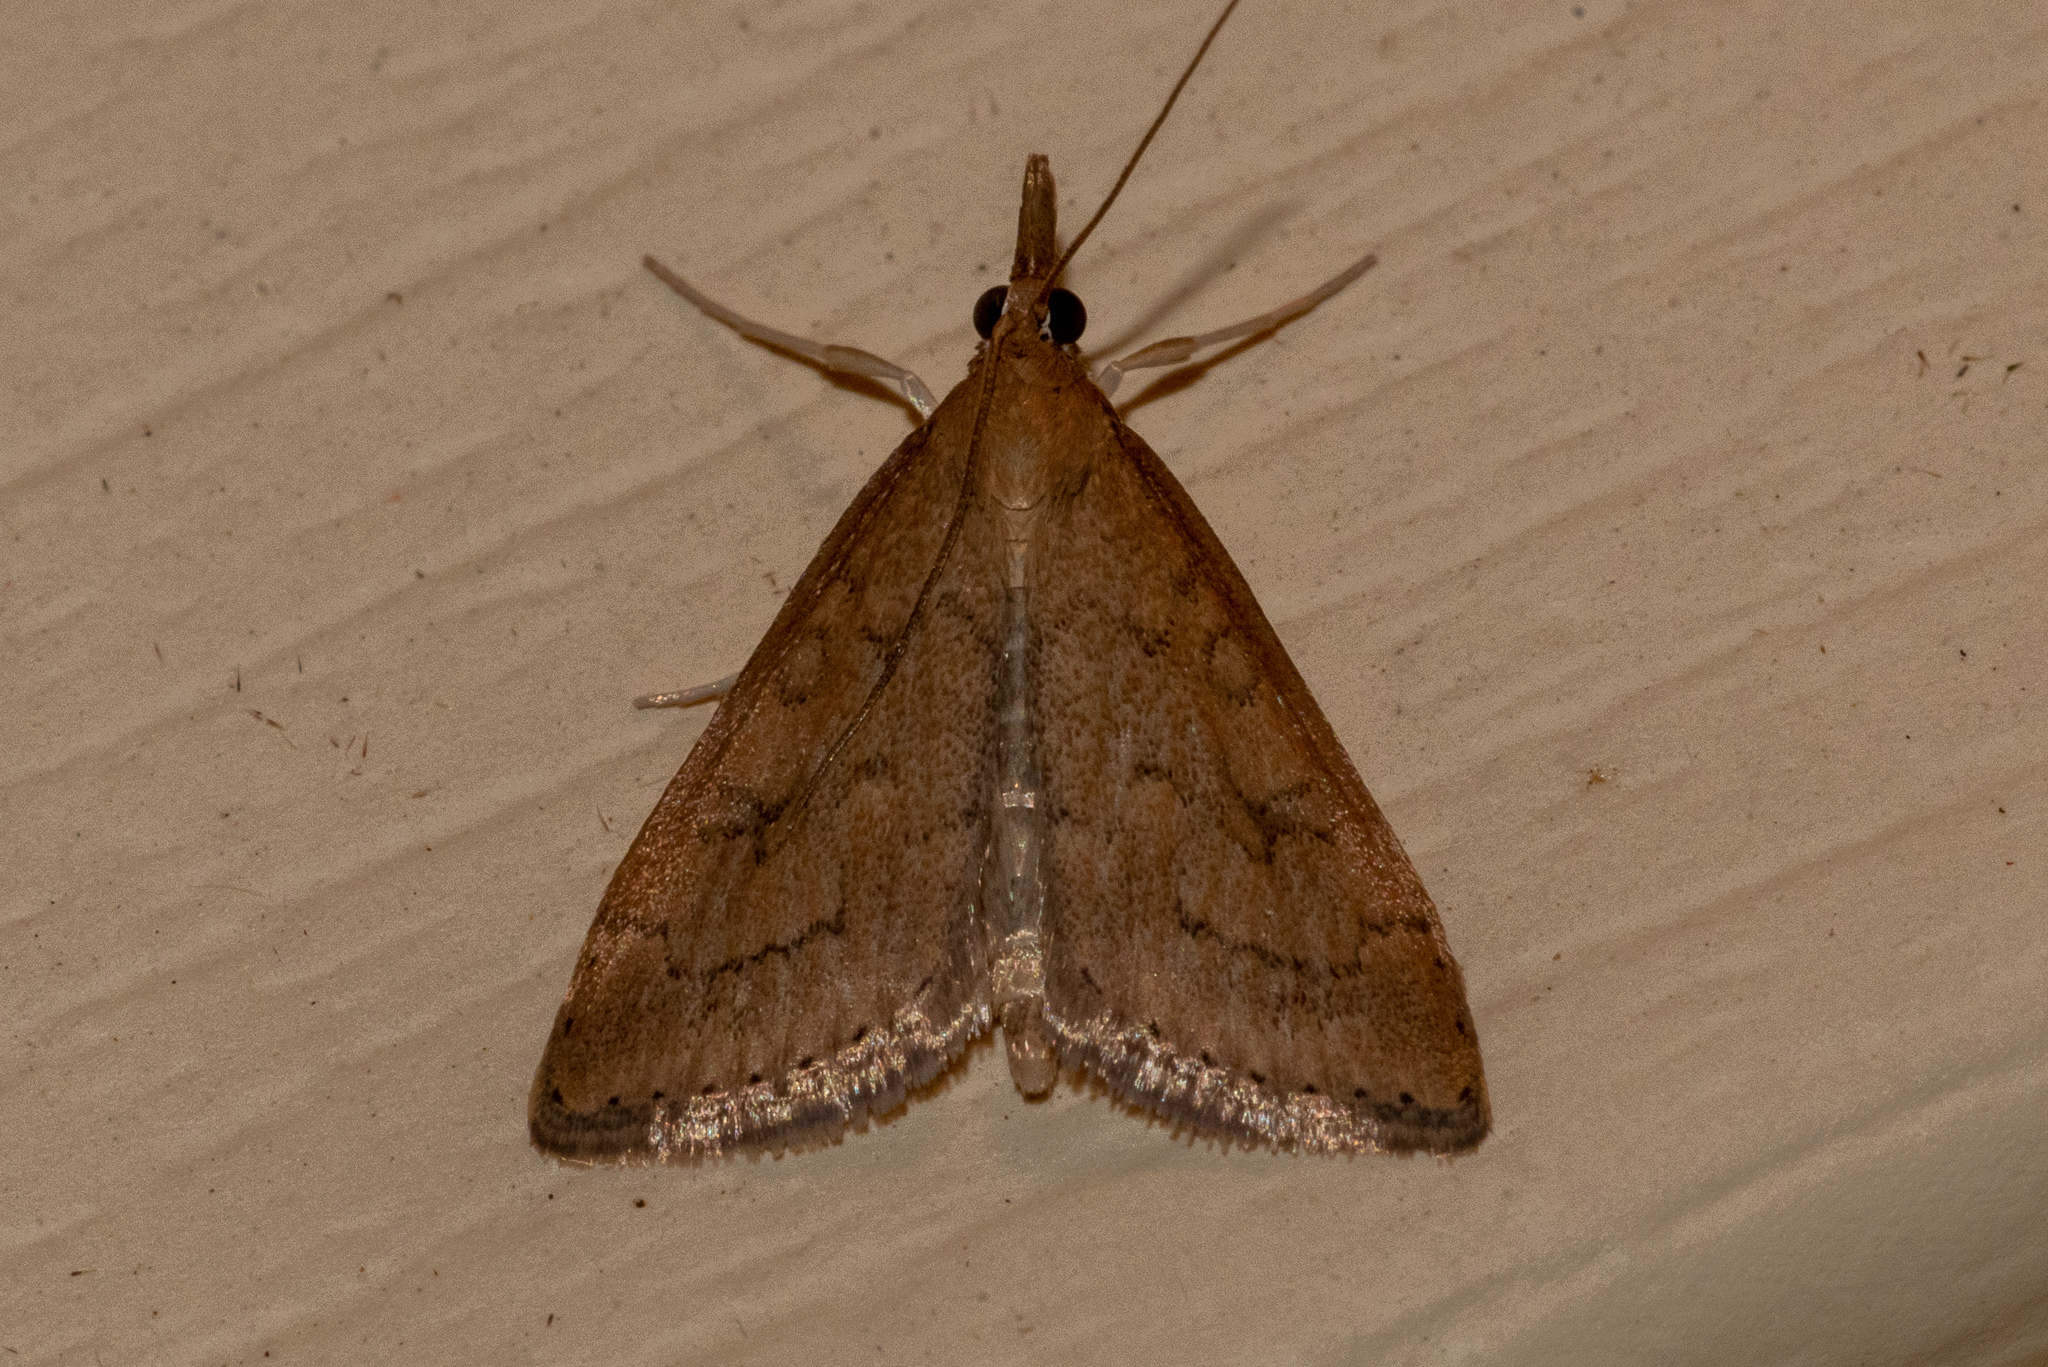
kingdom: Animalia
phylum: Arthropoda
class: Insecta
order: Lepidoptera
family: Crambidae
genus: Udea
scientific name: Udea rubigalis
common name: Celery leaftier moth
